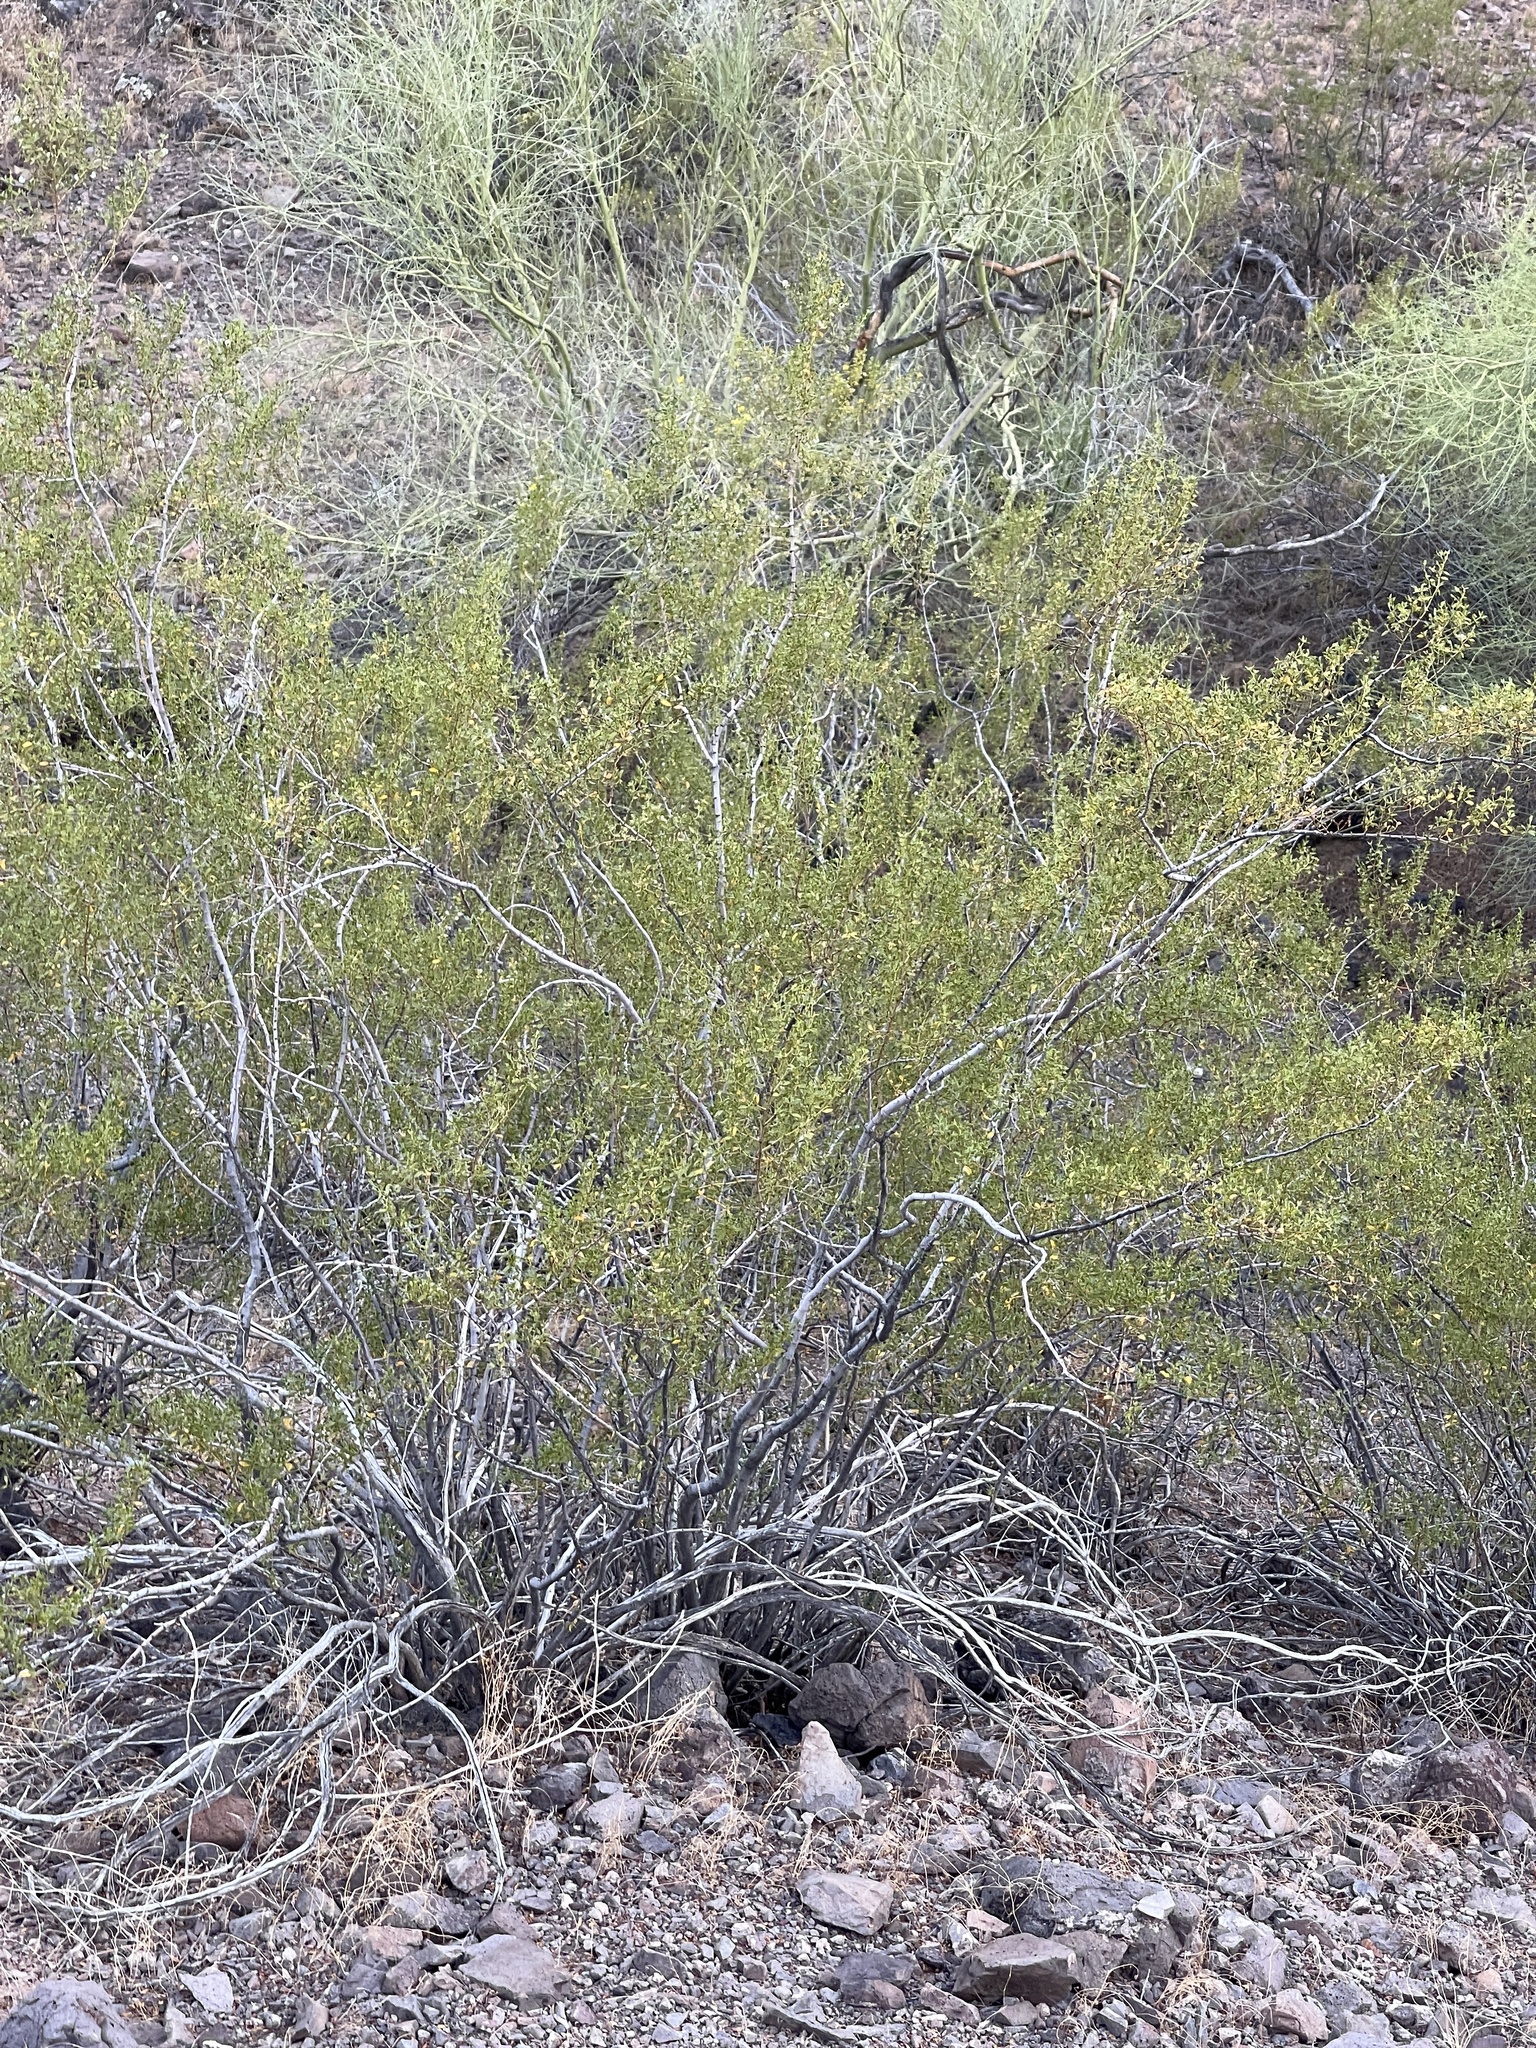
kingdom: Plantae
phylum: Tracheophyta
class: Magnoliopsida
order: Zygophyllales
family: Zygophyllaceae
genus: Larrea
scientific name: Larrea tridentata
